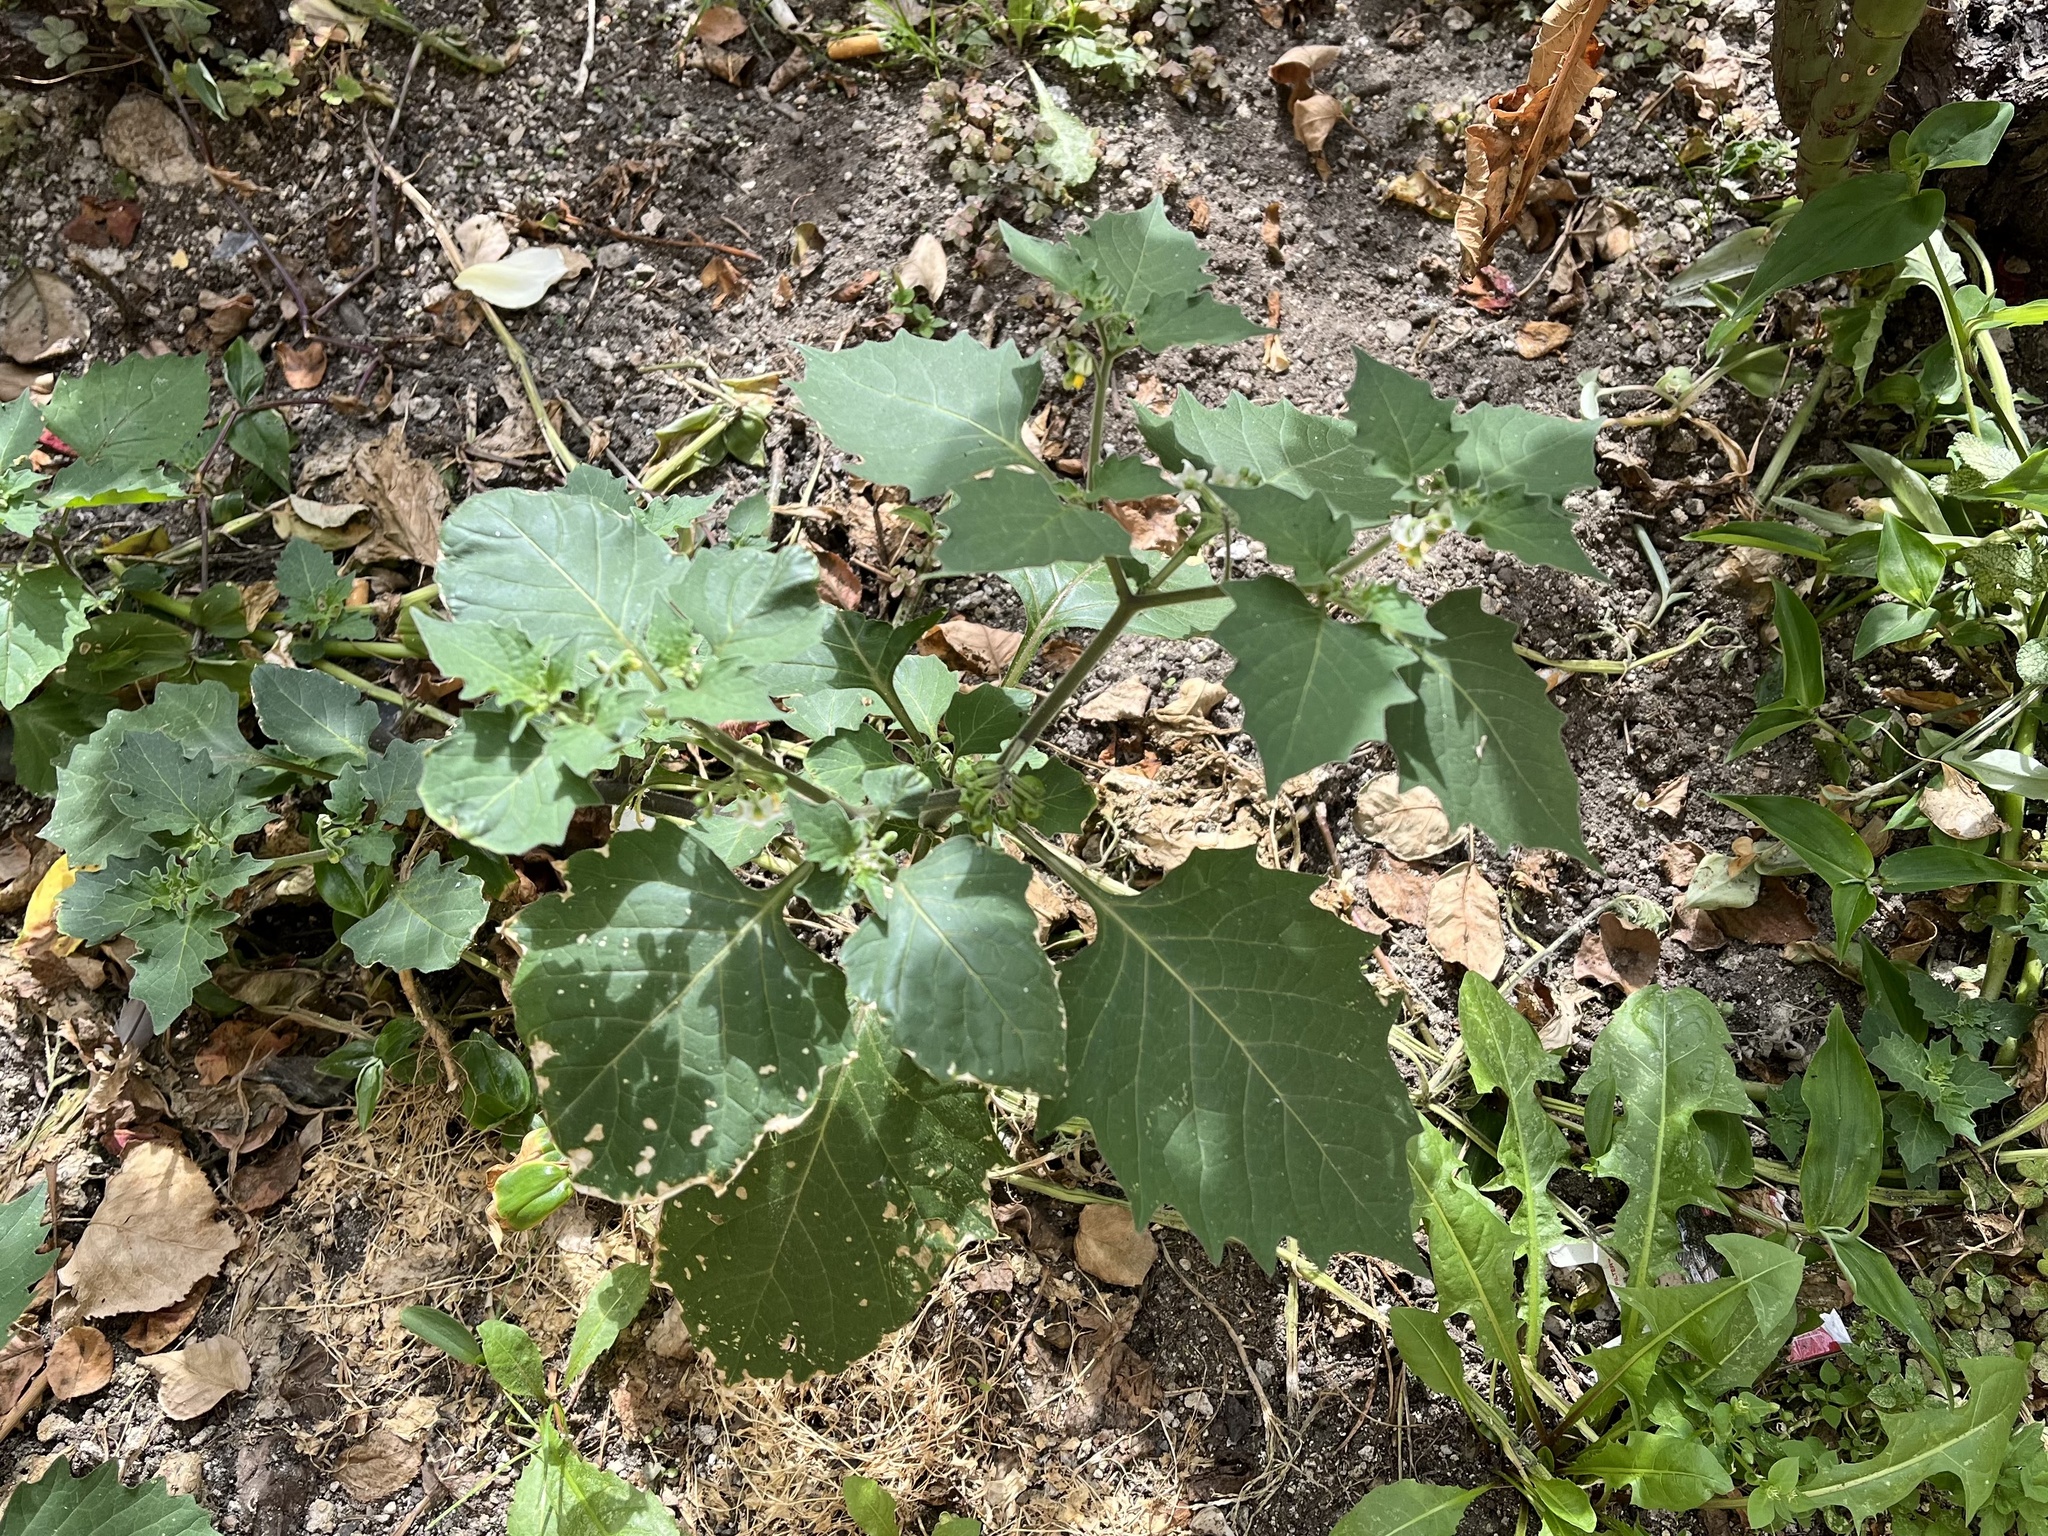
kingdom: Plantae
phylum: Tracheophyta
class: Magnoliopsida
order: Solanales
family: Solanaceae
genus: Solanum
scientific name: Solanum nigrum
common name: Black nightshade
